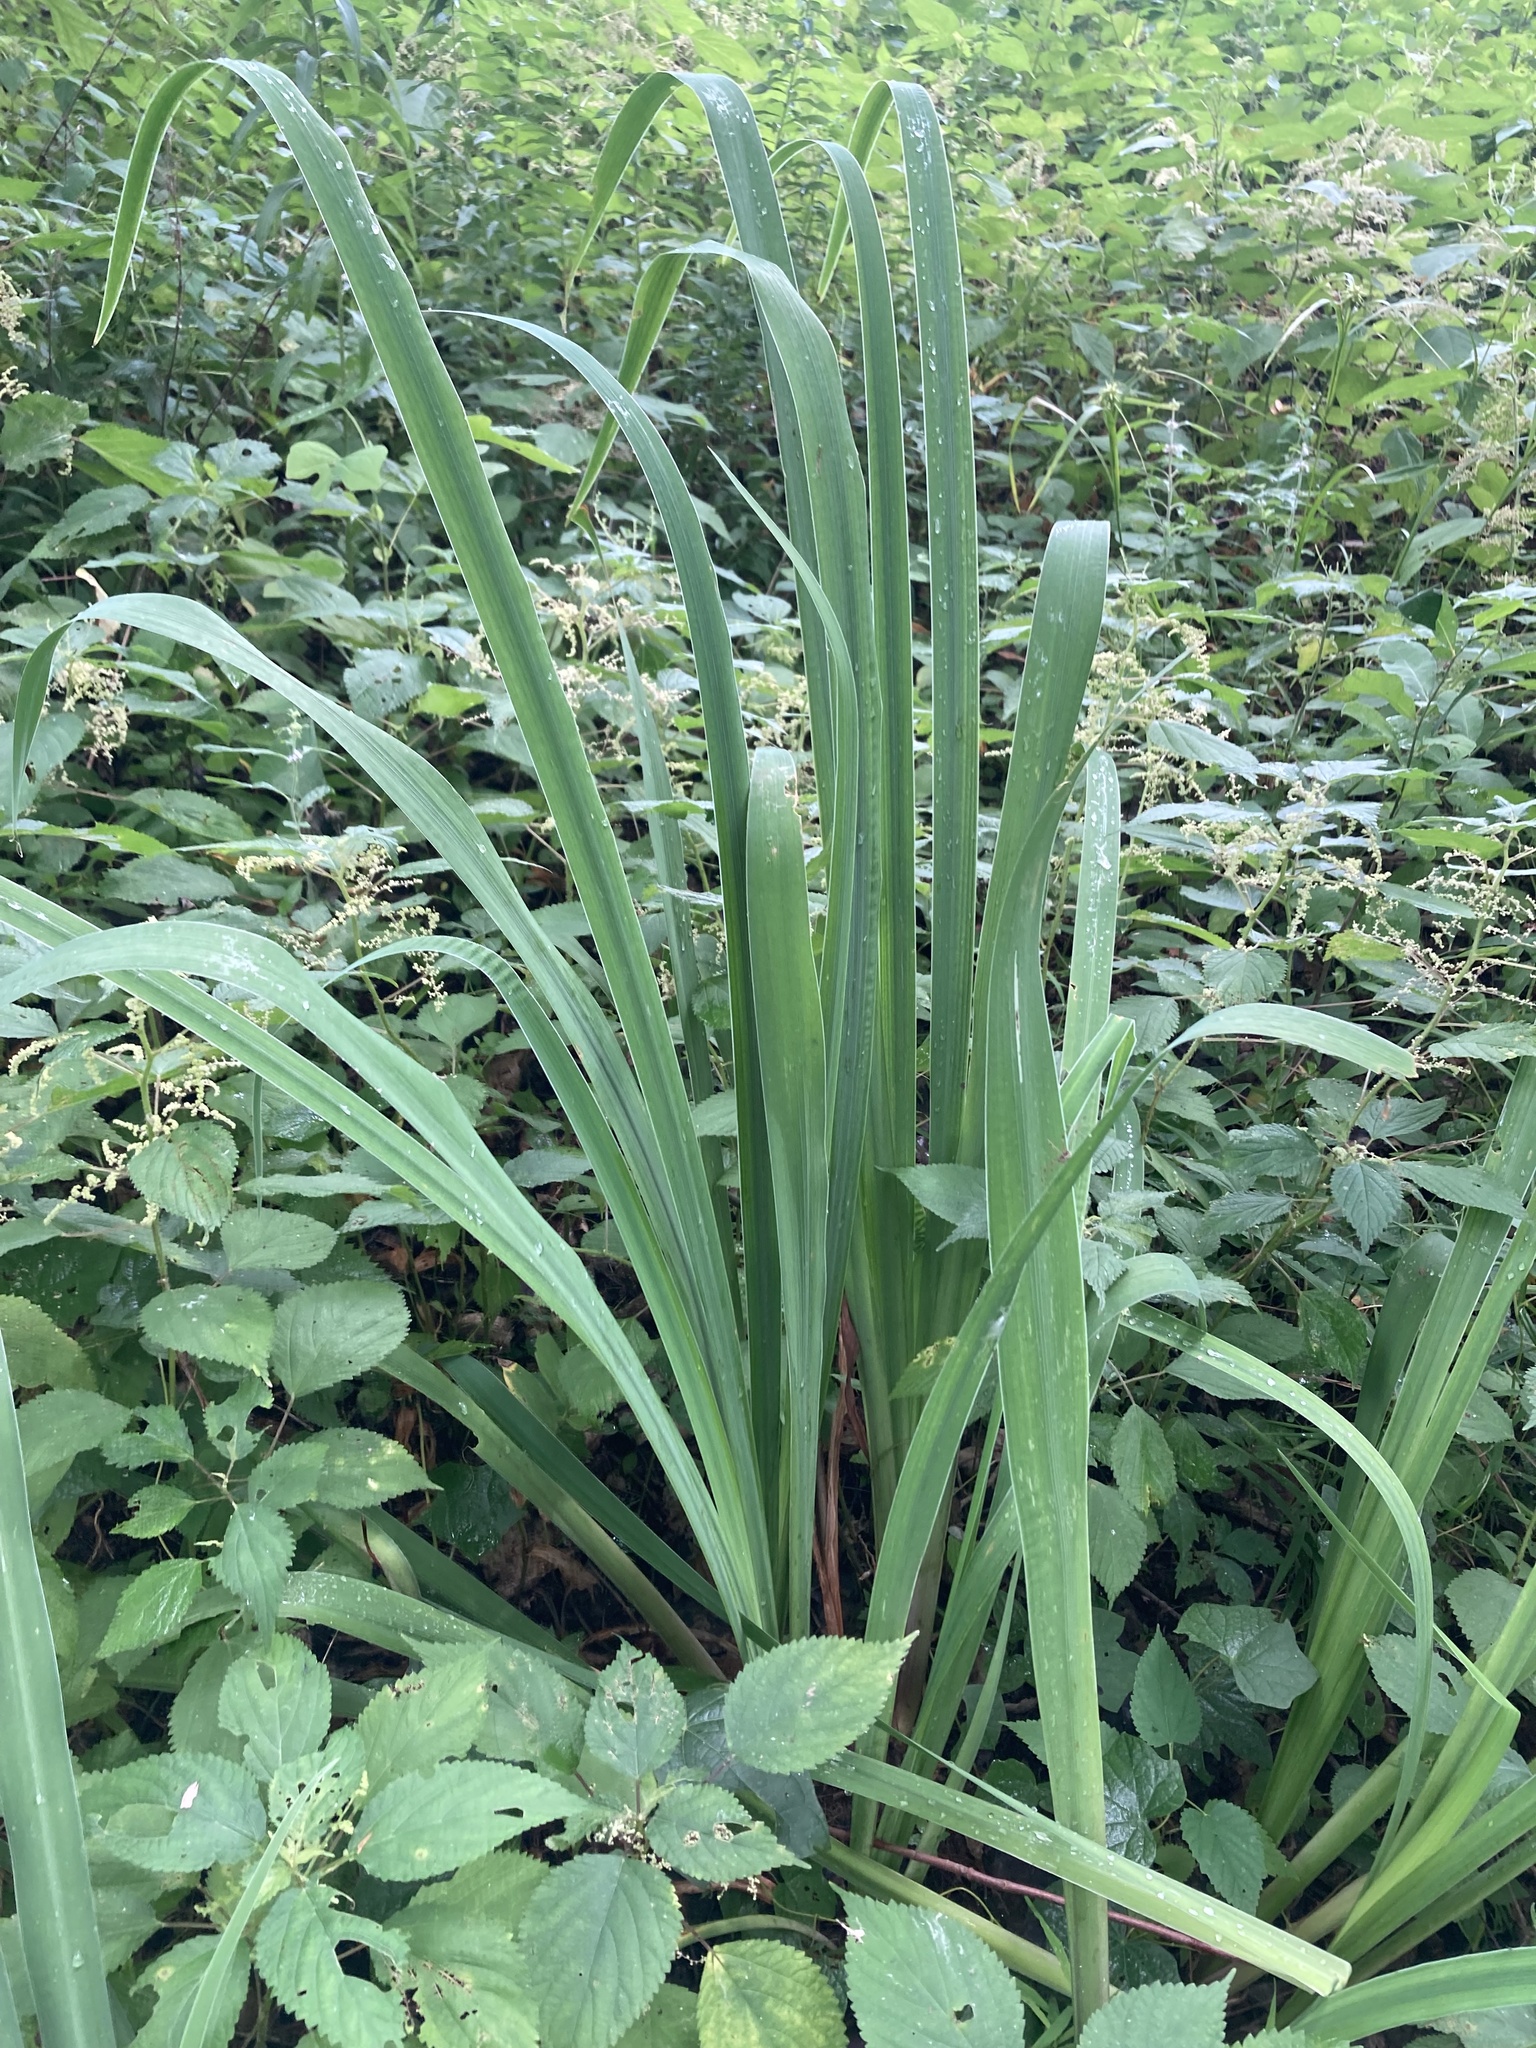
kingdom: Plantae
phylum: Tracheophyta
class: Liliopsida
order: Asparagales
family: Iridaceae
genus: Iris
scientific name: Iris pseudacorus
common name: Yellow flag
